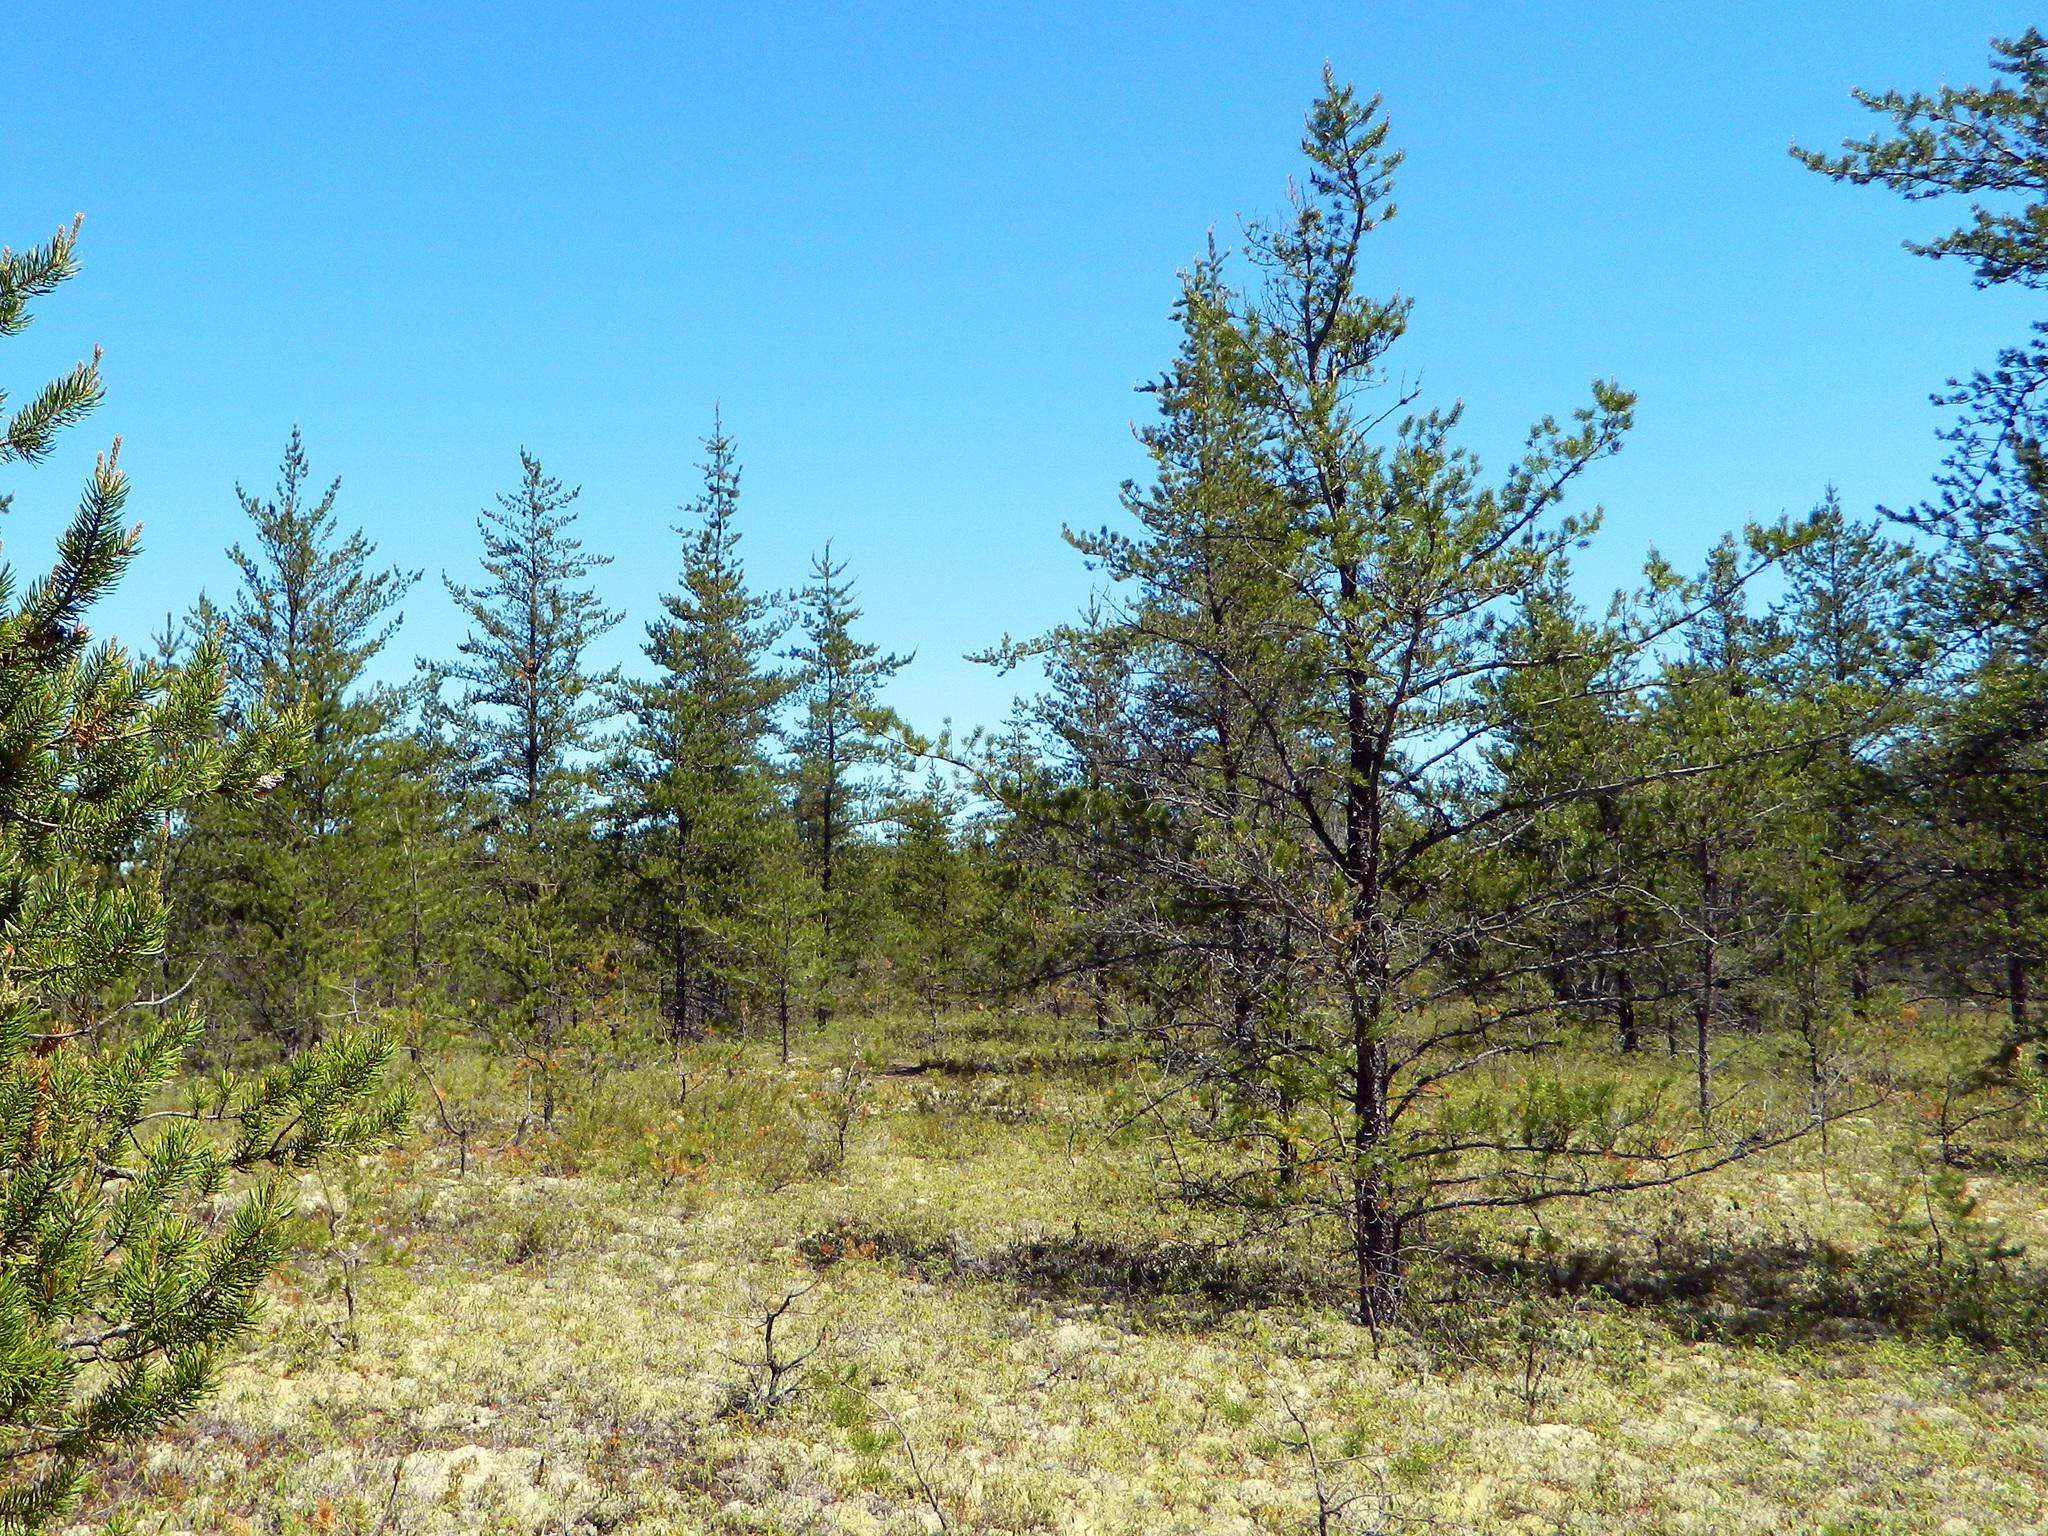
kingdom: Plantae
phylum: Tracheophyta
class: Pinopsida
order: Pinales
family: Pinaceae
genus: Pinus
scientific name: Pinus banksiana
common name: Jack pine
